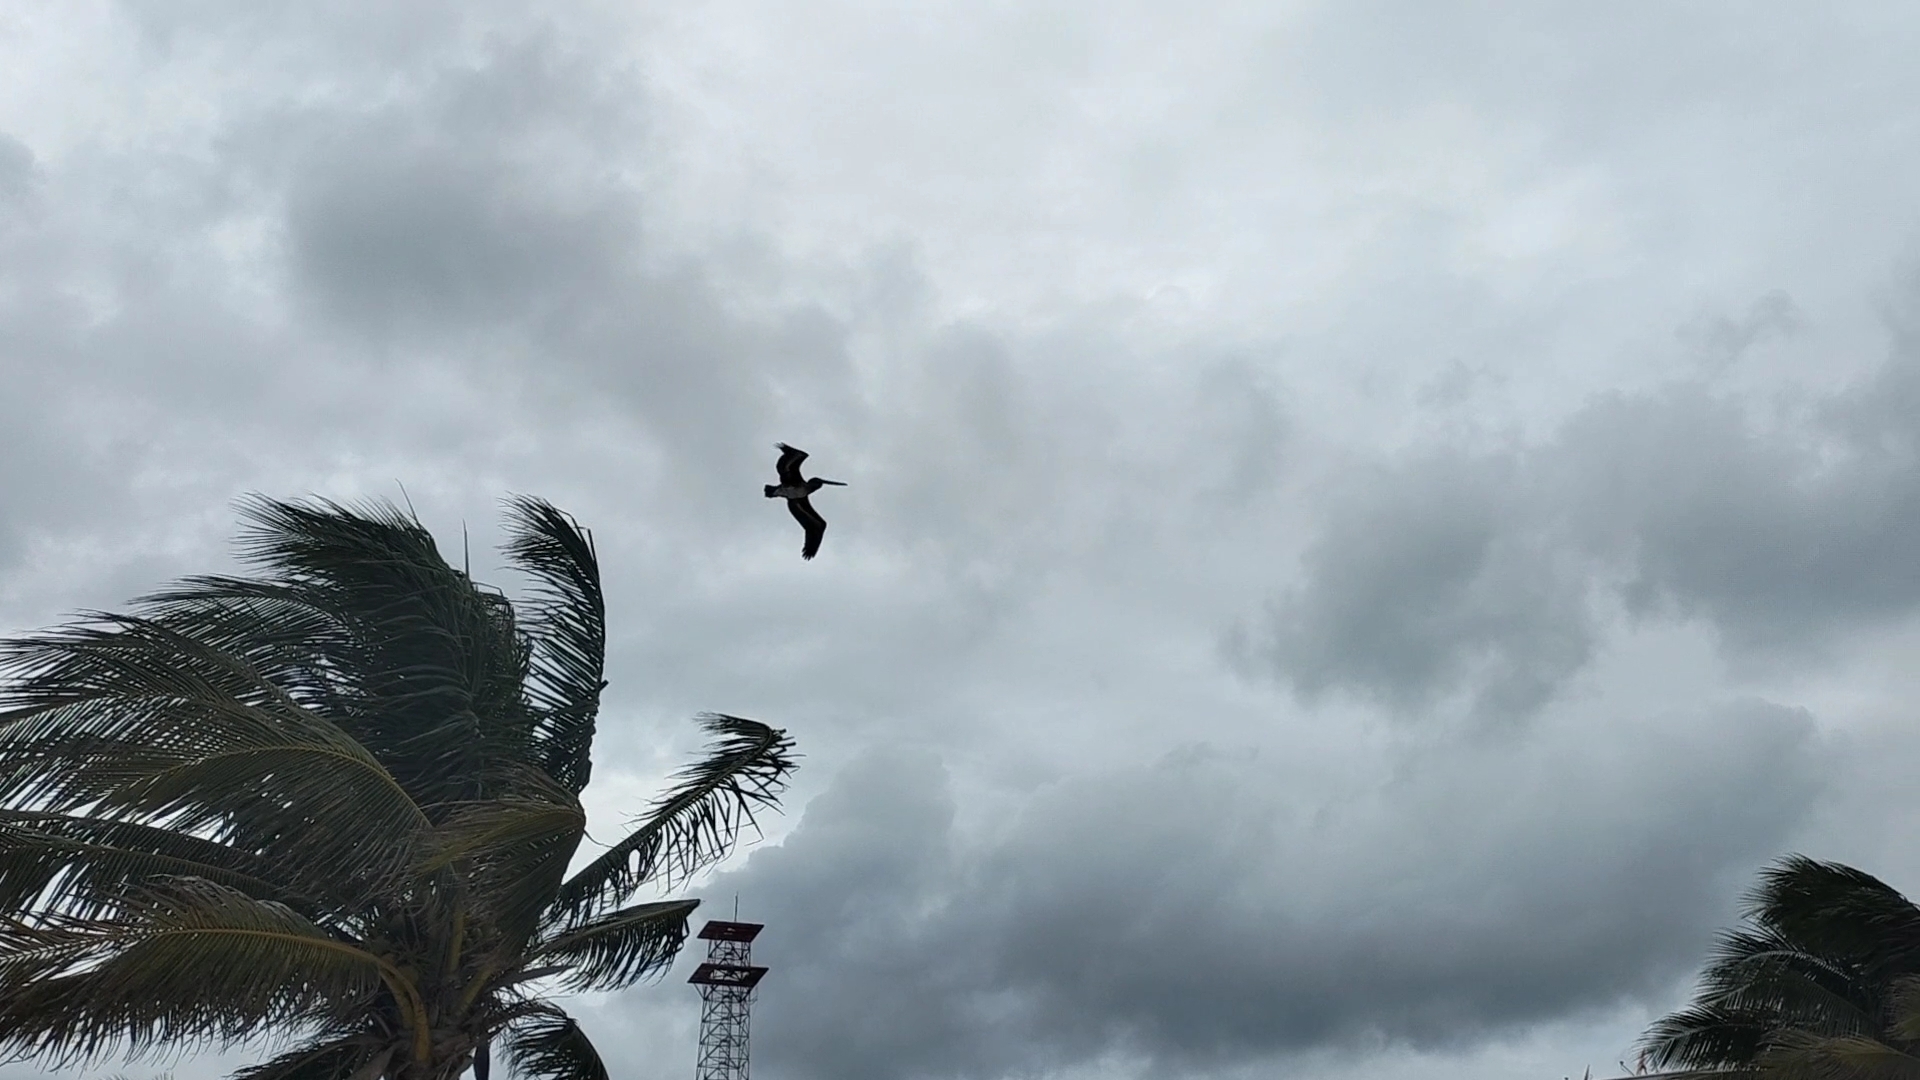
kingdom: Animalia
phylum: Chordata
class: Aves
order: Pelecaniformes
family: Pelecanidae
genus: Pelecanus
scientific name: Pelecanus occidentalis
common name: Brown pelican
